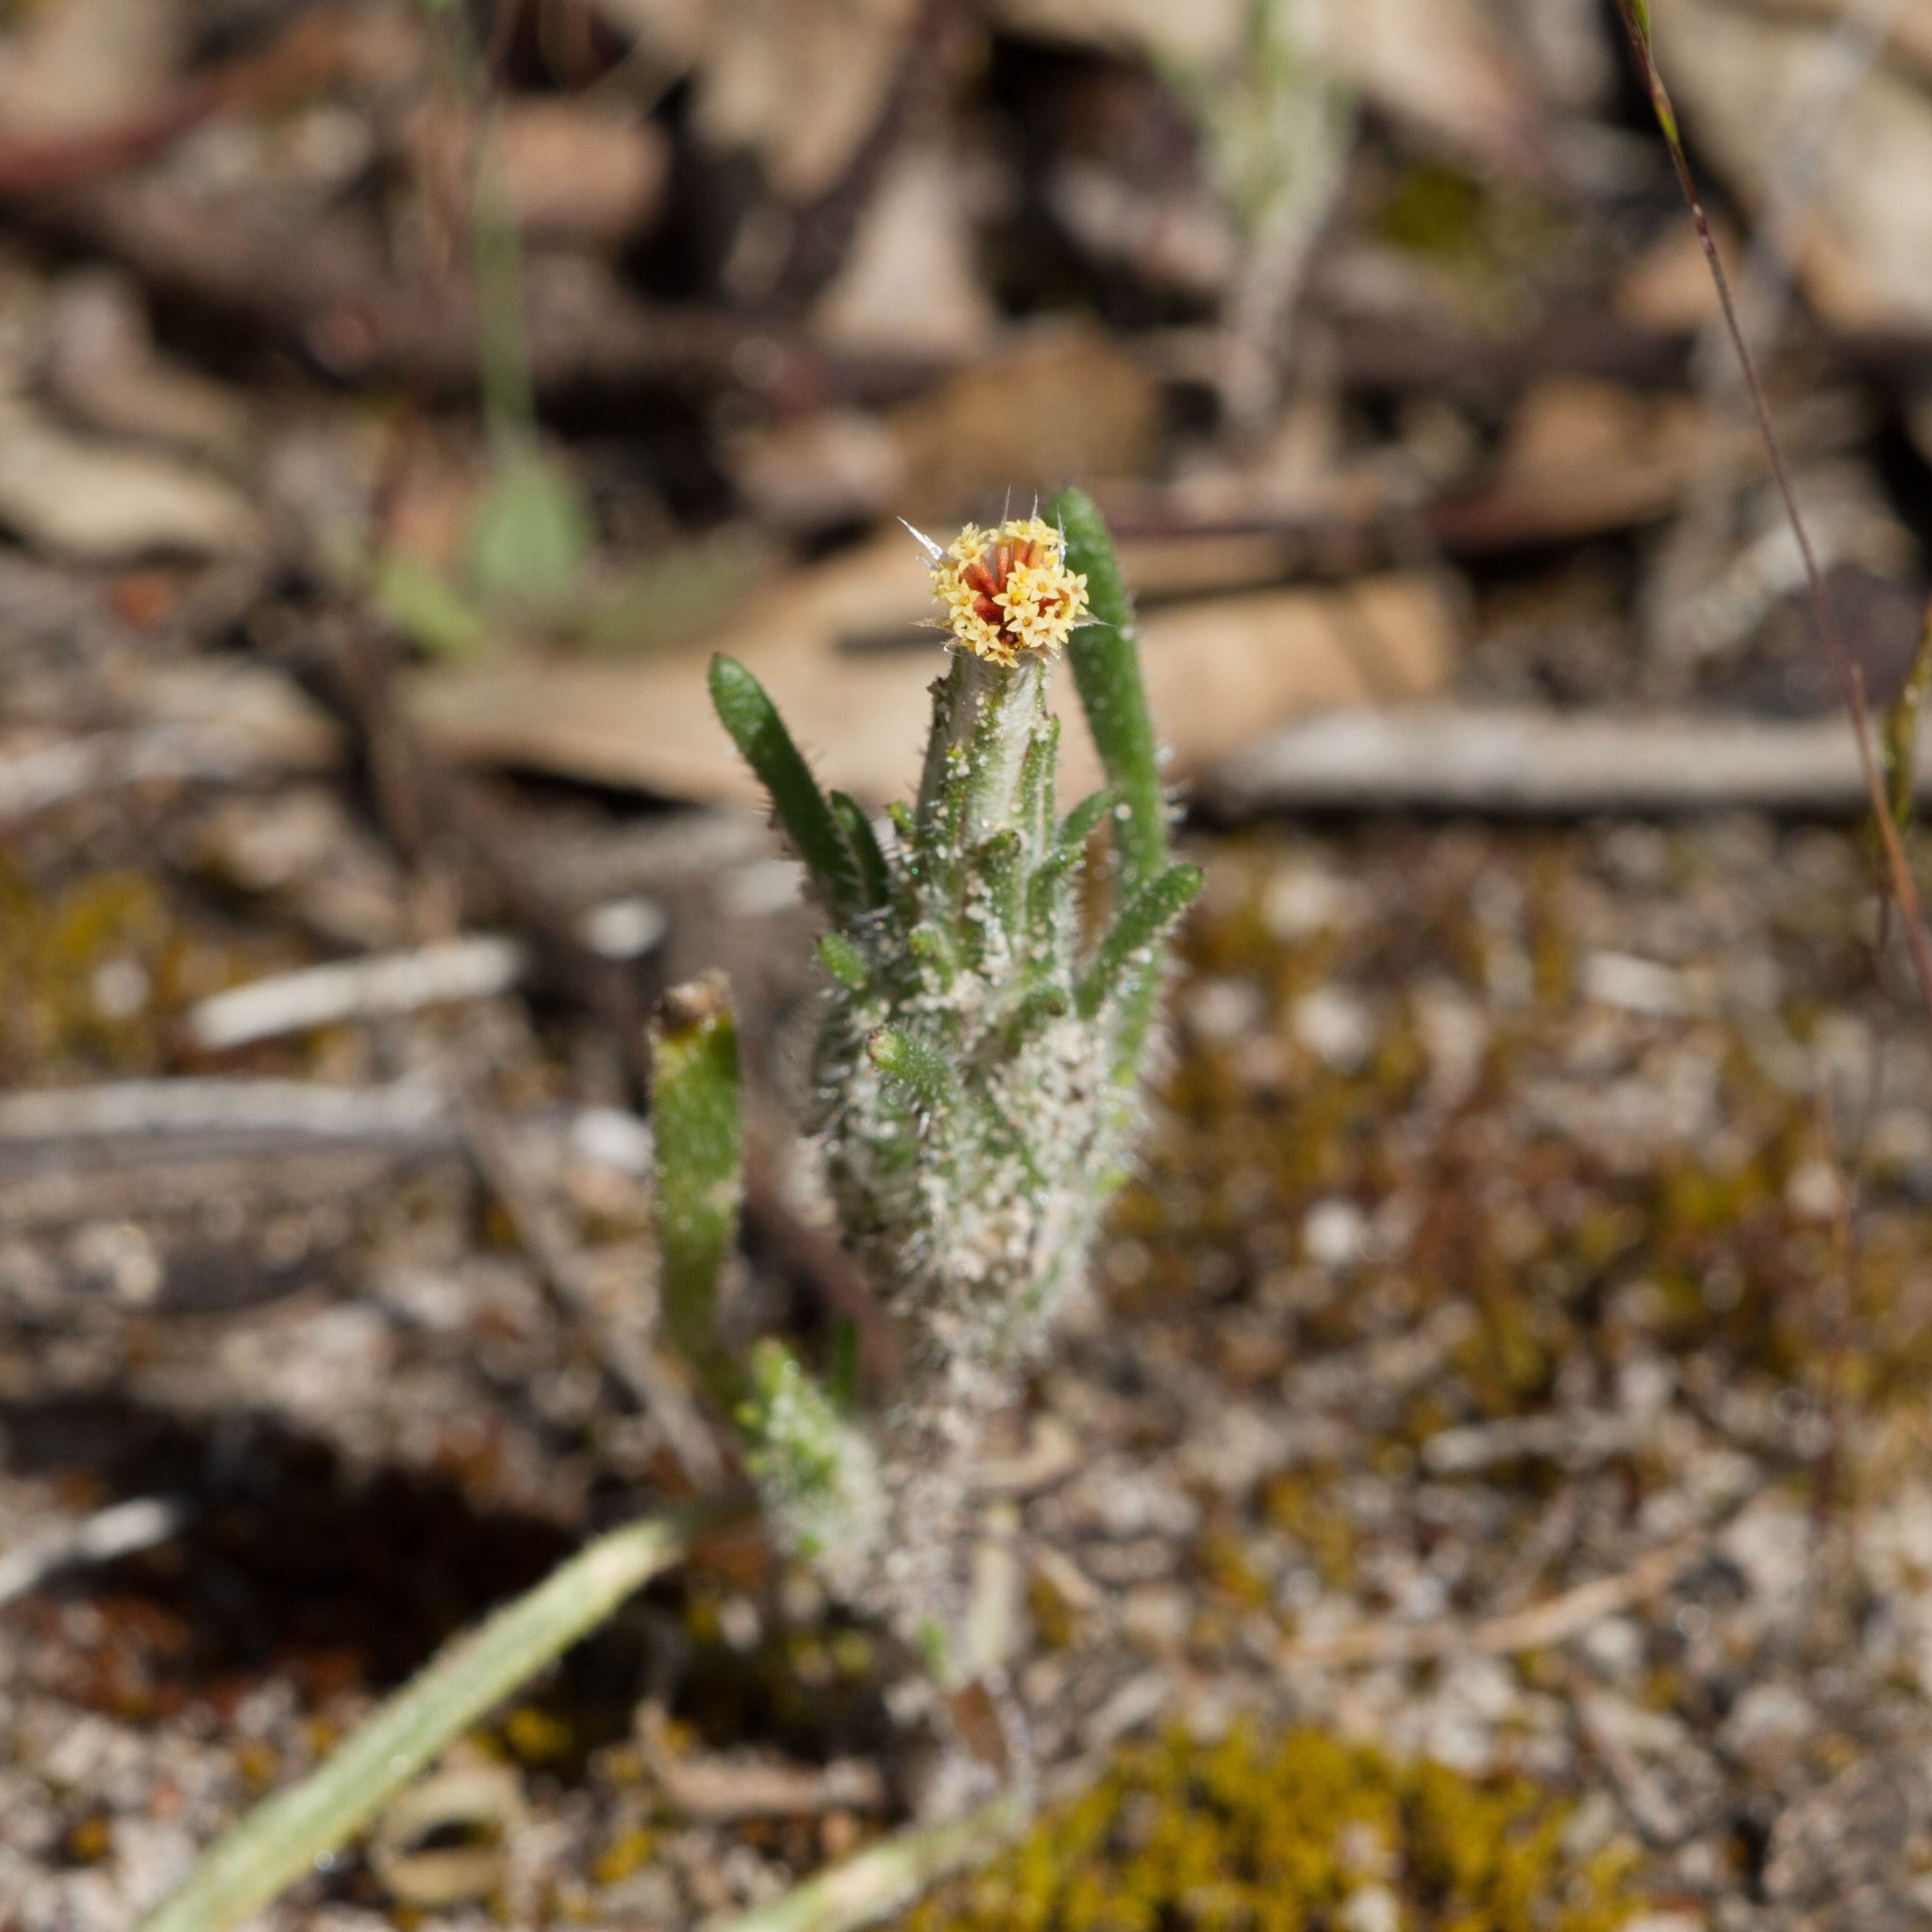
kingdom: Plantae
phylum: Tracheophyta
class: Magnoliopsida
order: Asterales
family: Asteraceae
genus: Podotheca
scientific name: Podotheca angustifolia
